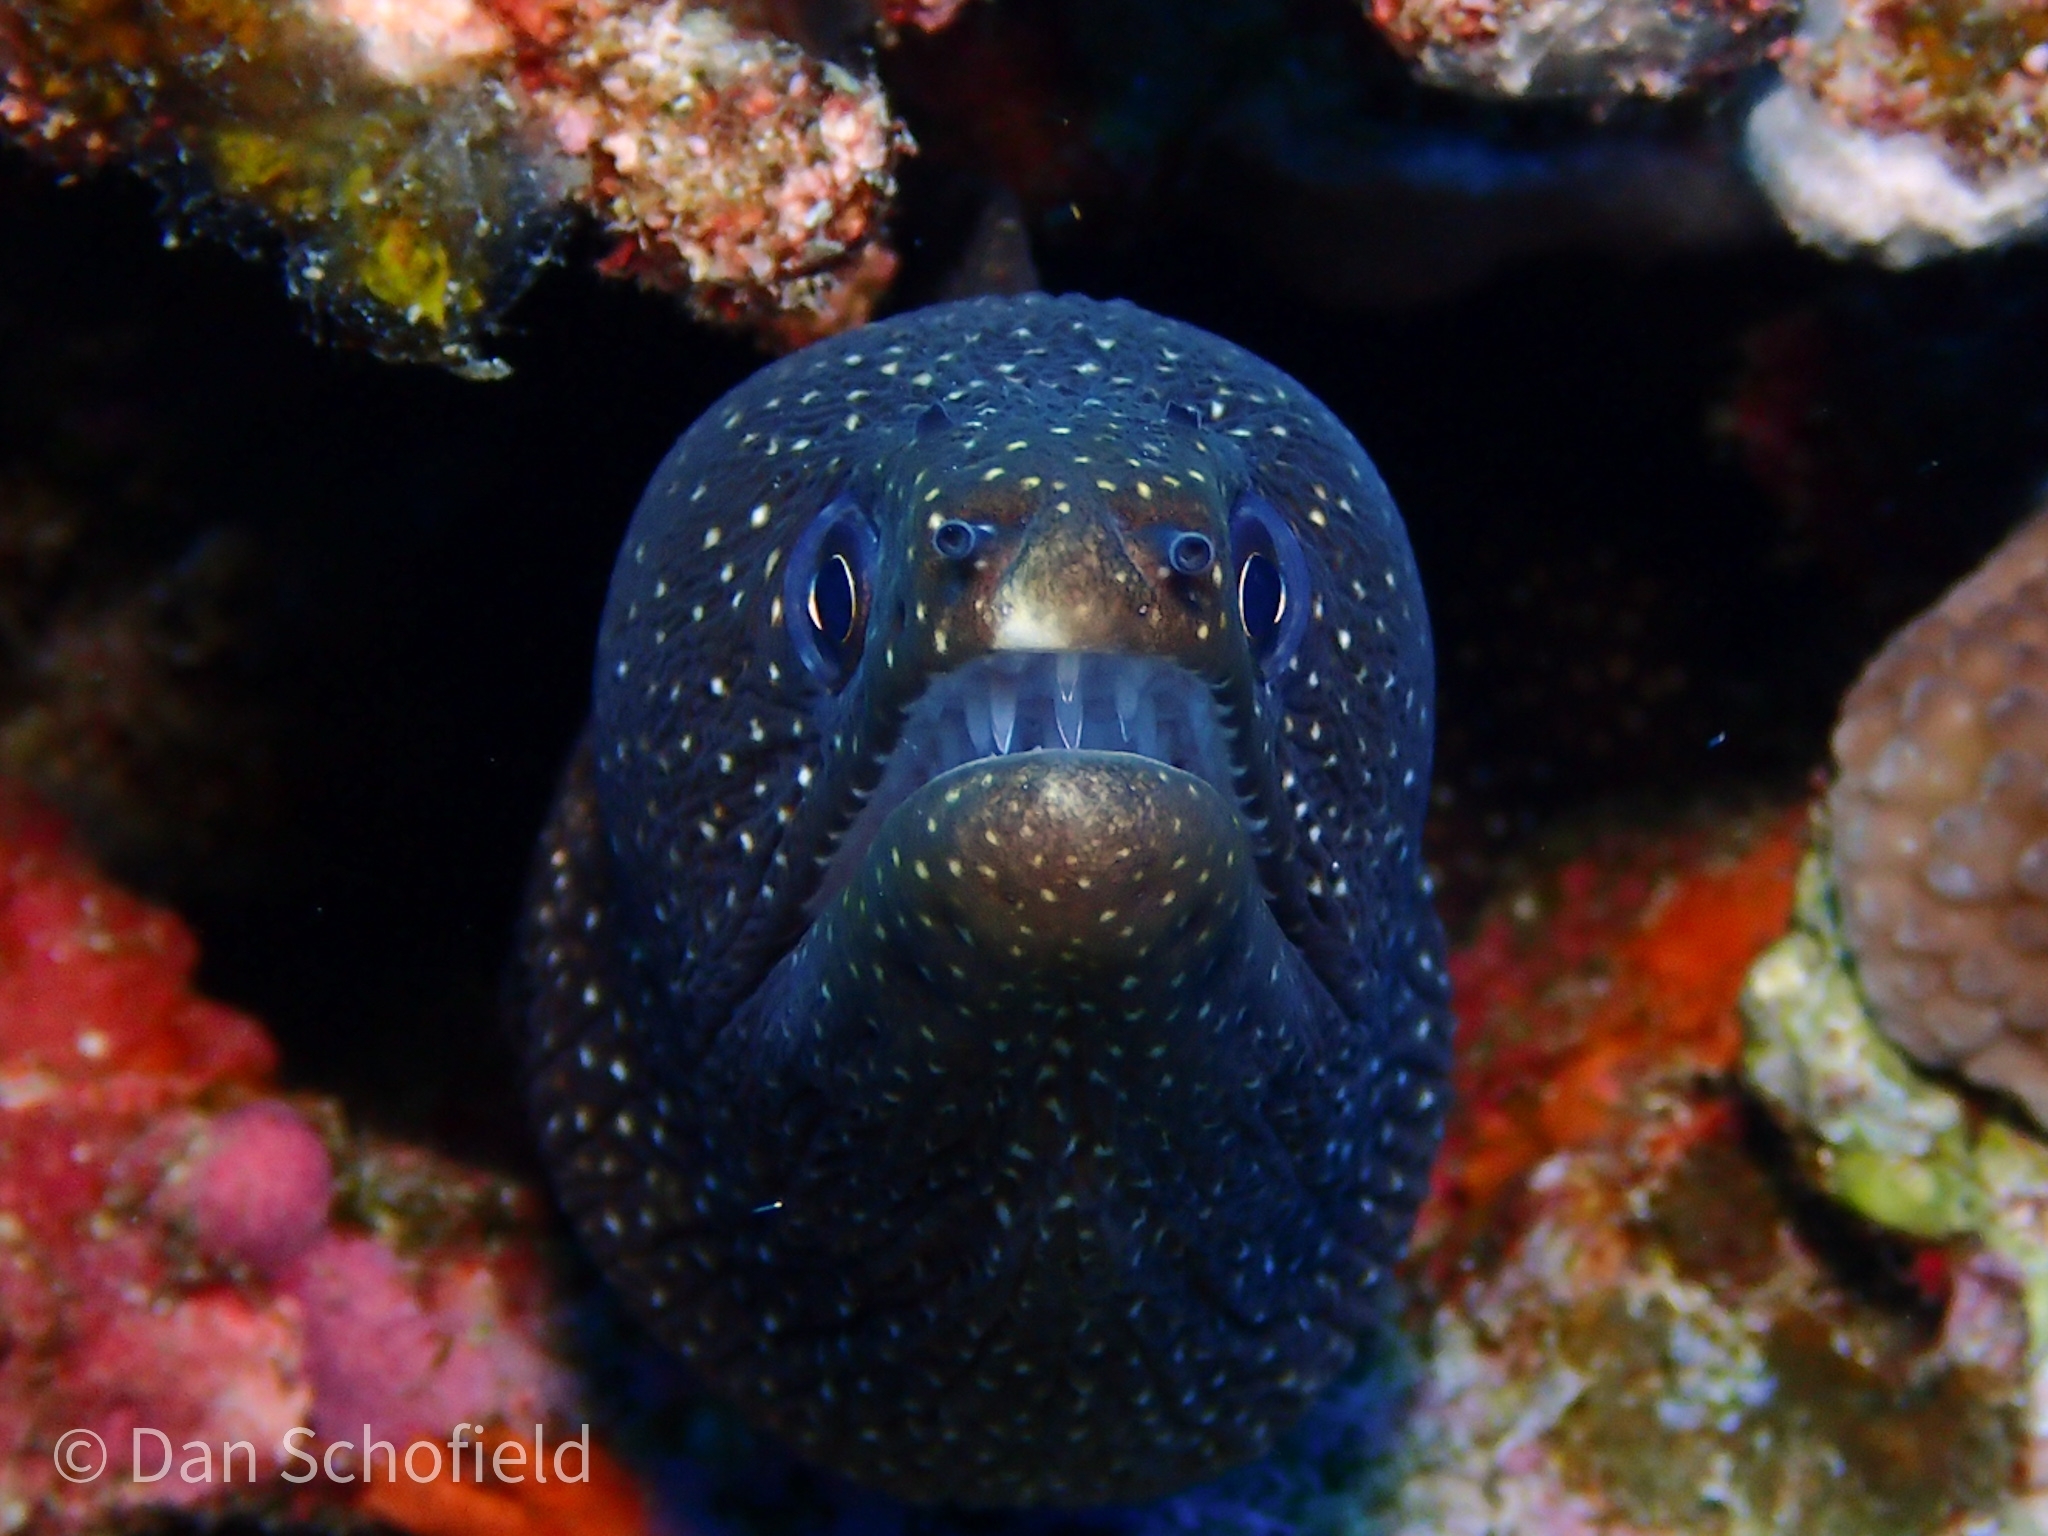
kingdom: Animalia
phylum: Chordata
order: Anguilliformes
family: Muraenidae
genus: Gymnothorax
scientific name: Gymnothorax meleagris
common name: Guineafowl moray
